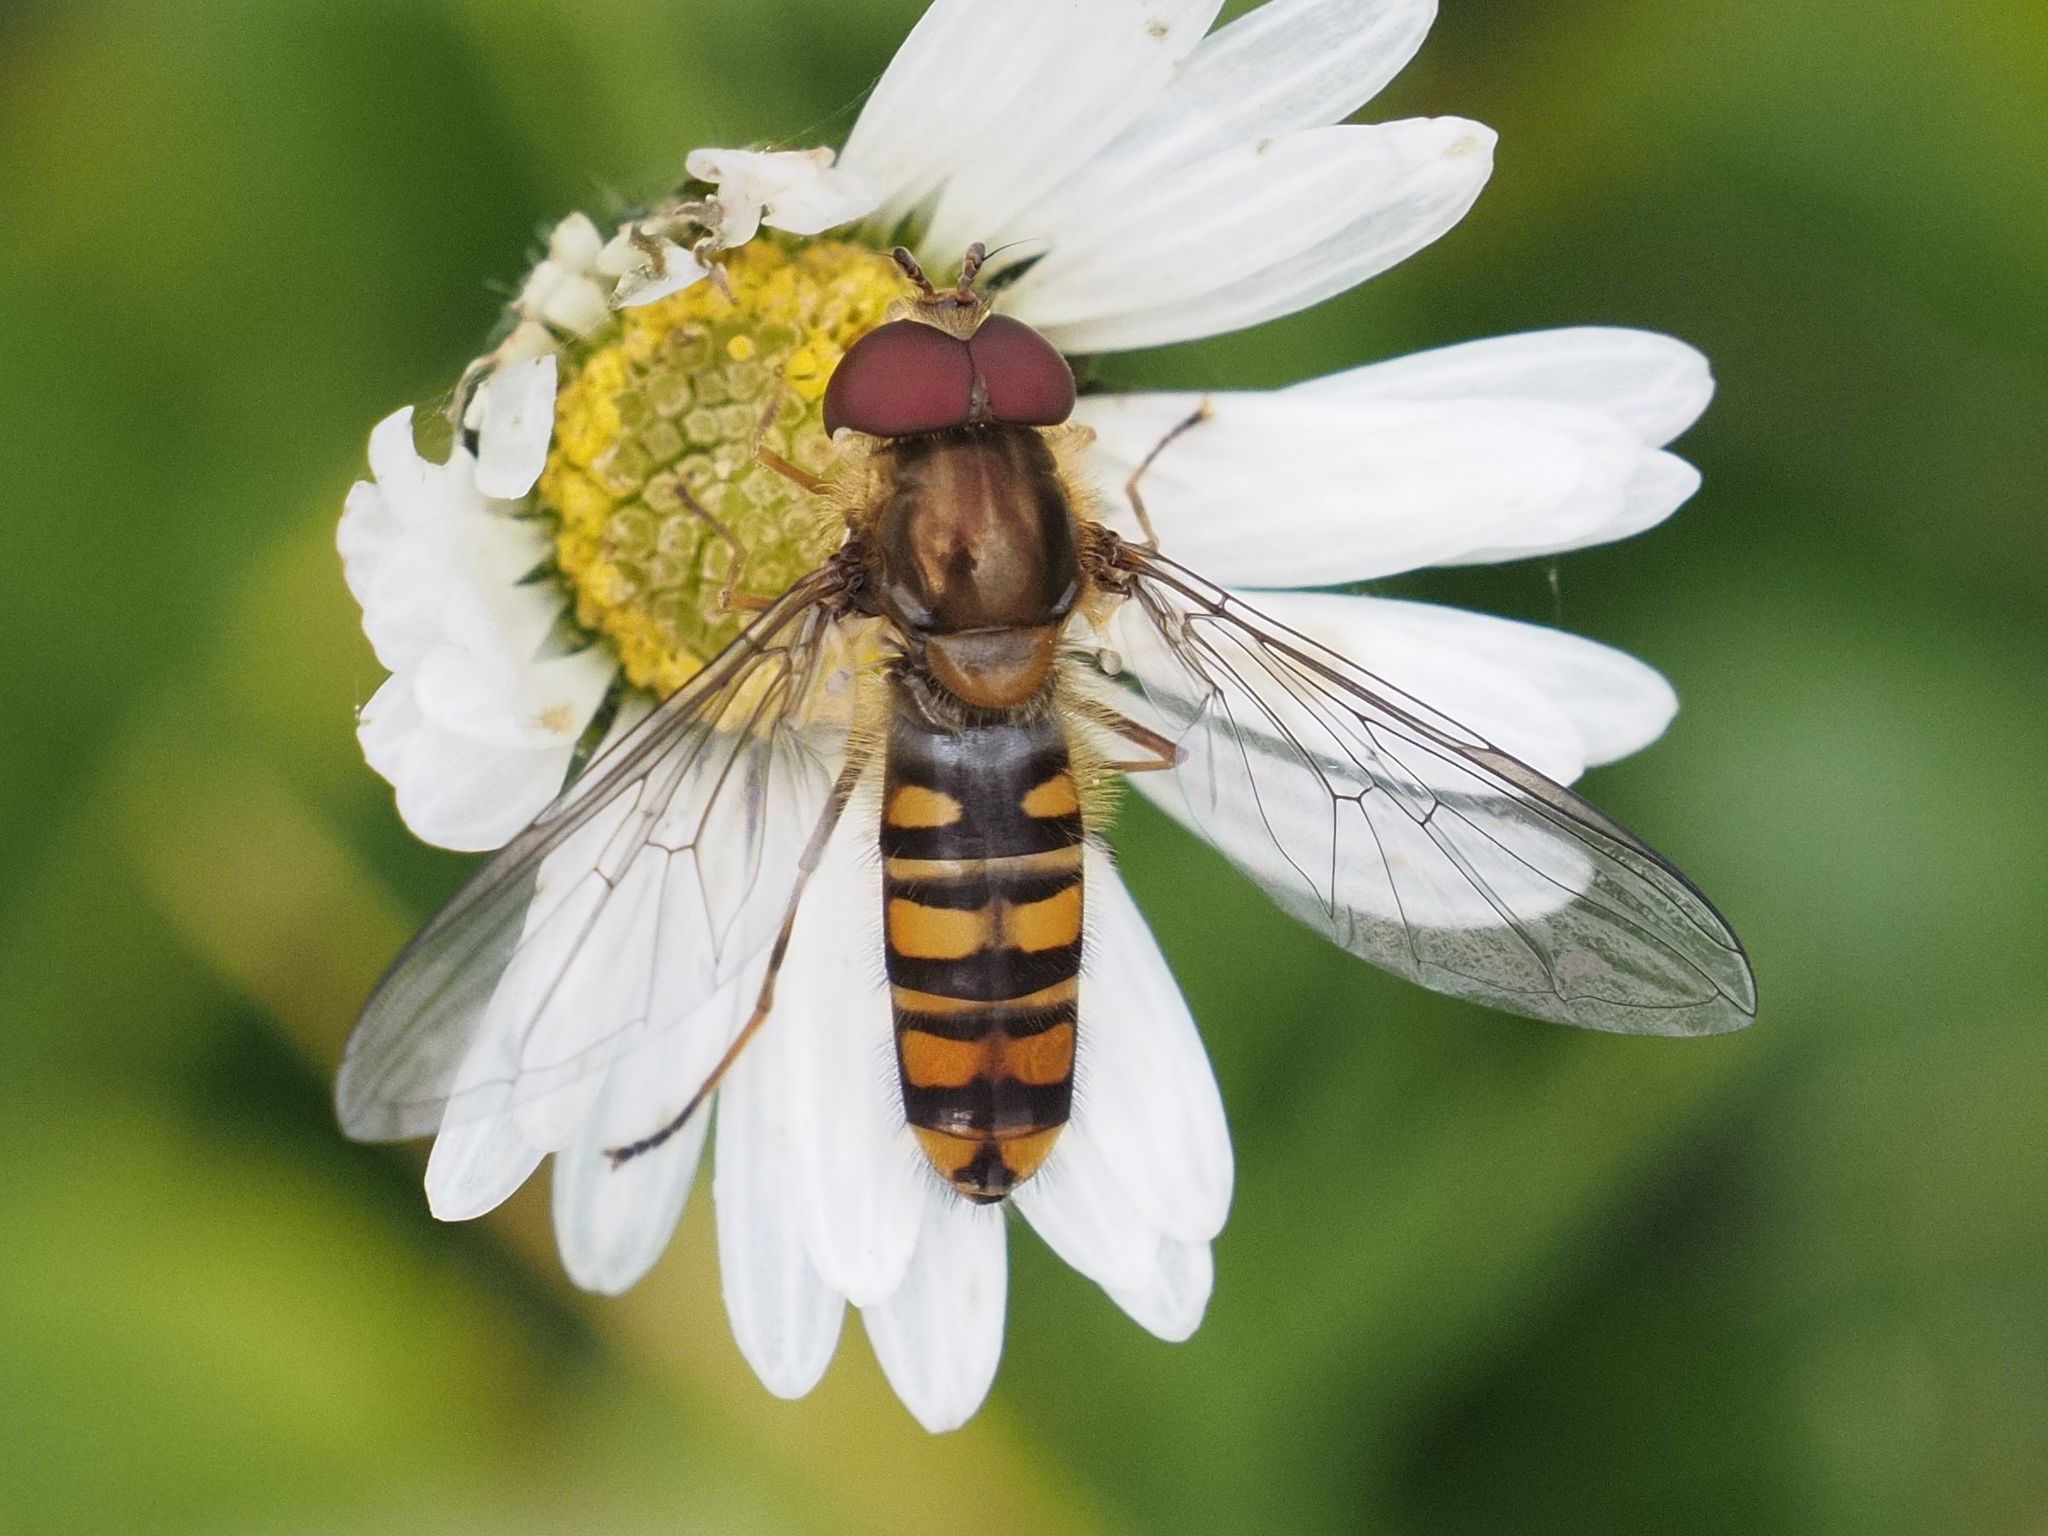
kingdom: Animalia
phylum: Arthropoda
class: Insecta
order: Diptera
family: Syrphidae
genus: Episyrphus
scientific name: Episyrphus balteatus
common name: Marmalade hoverfly
